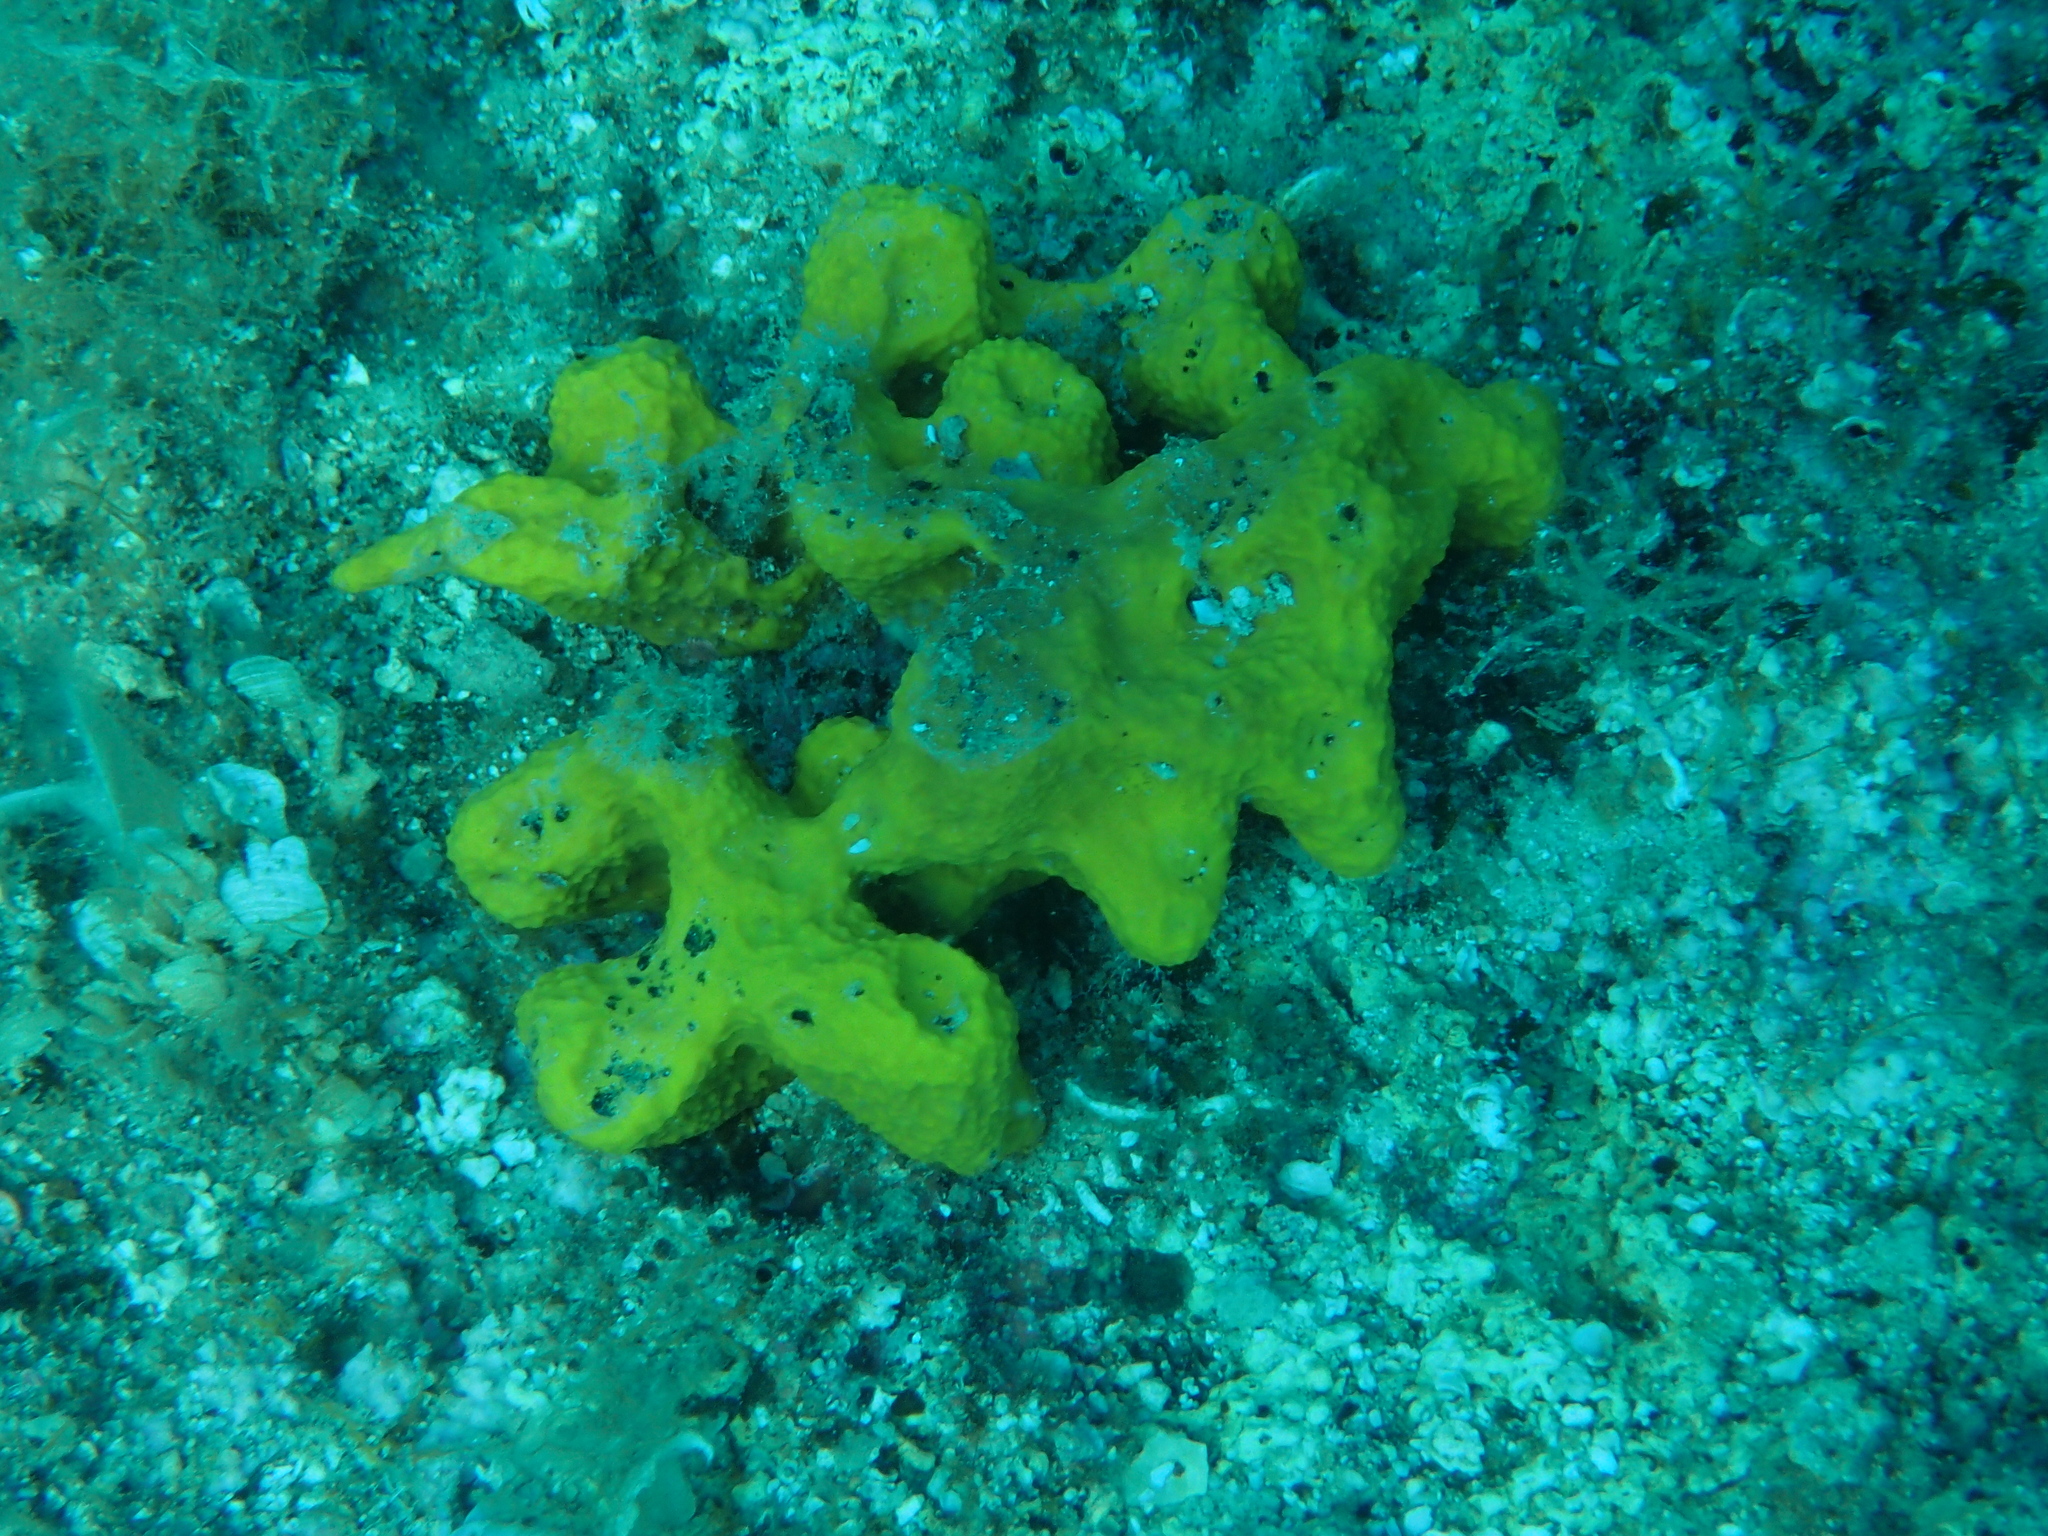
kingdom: Animalia
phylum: Porifera
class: Demospongiae
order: Verongiida
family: Aplysinidae
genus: Aplysina
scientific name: Aplysina aerophoba
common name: Aureate sponge
